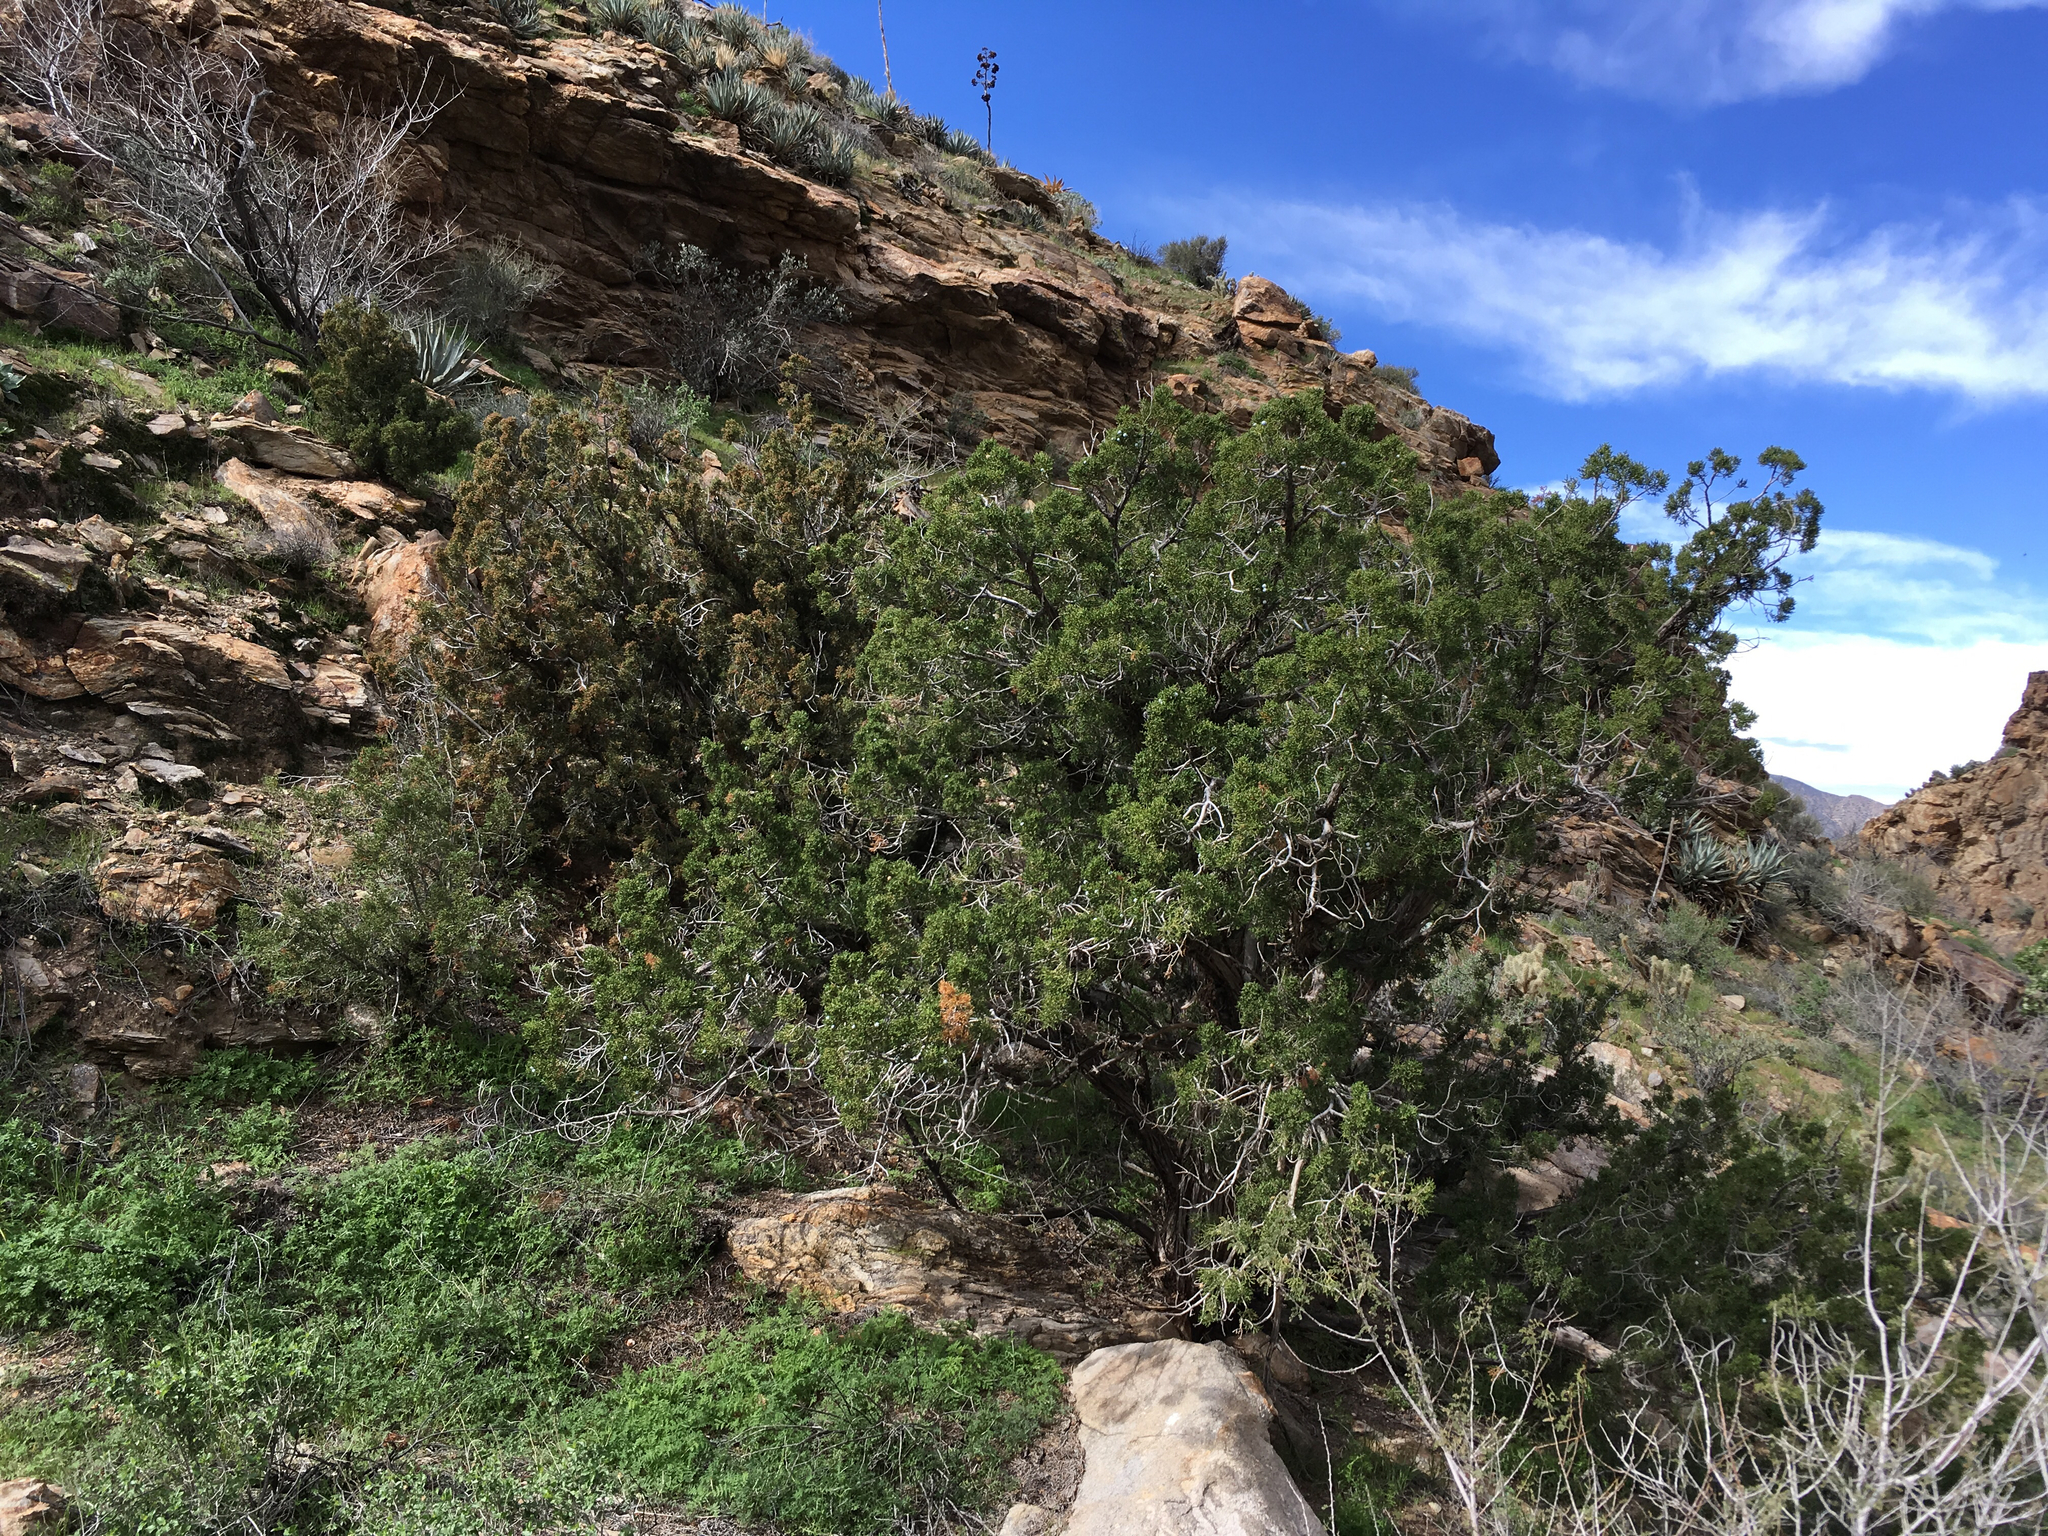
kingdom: Plantae
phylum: Tracheophyta
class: Pinopsida
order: Pinales
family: Cupressaceae
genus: Juniperus
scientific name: Juniperus californica
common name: California juniper
